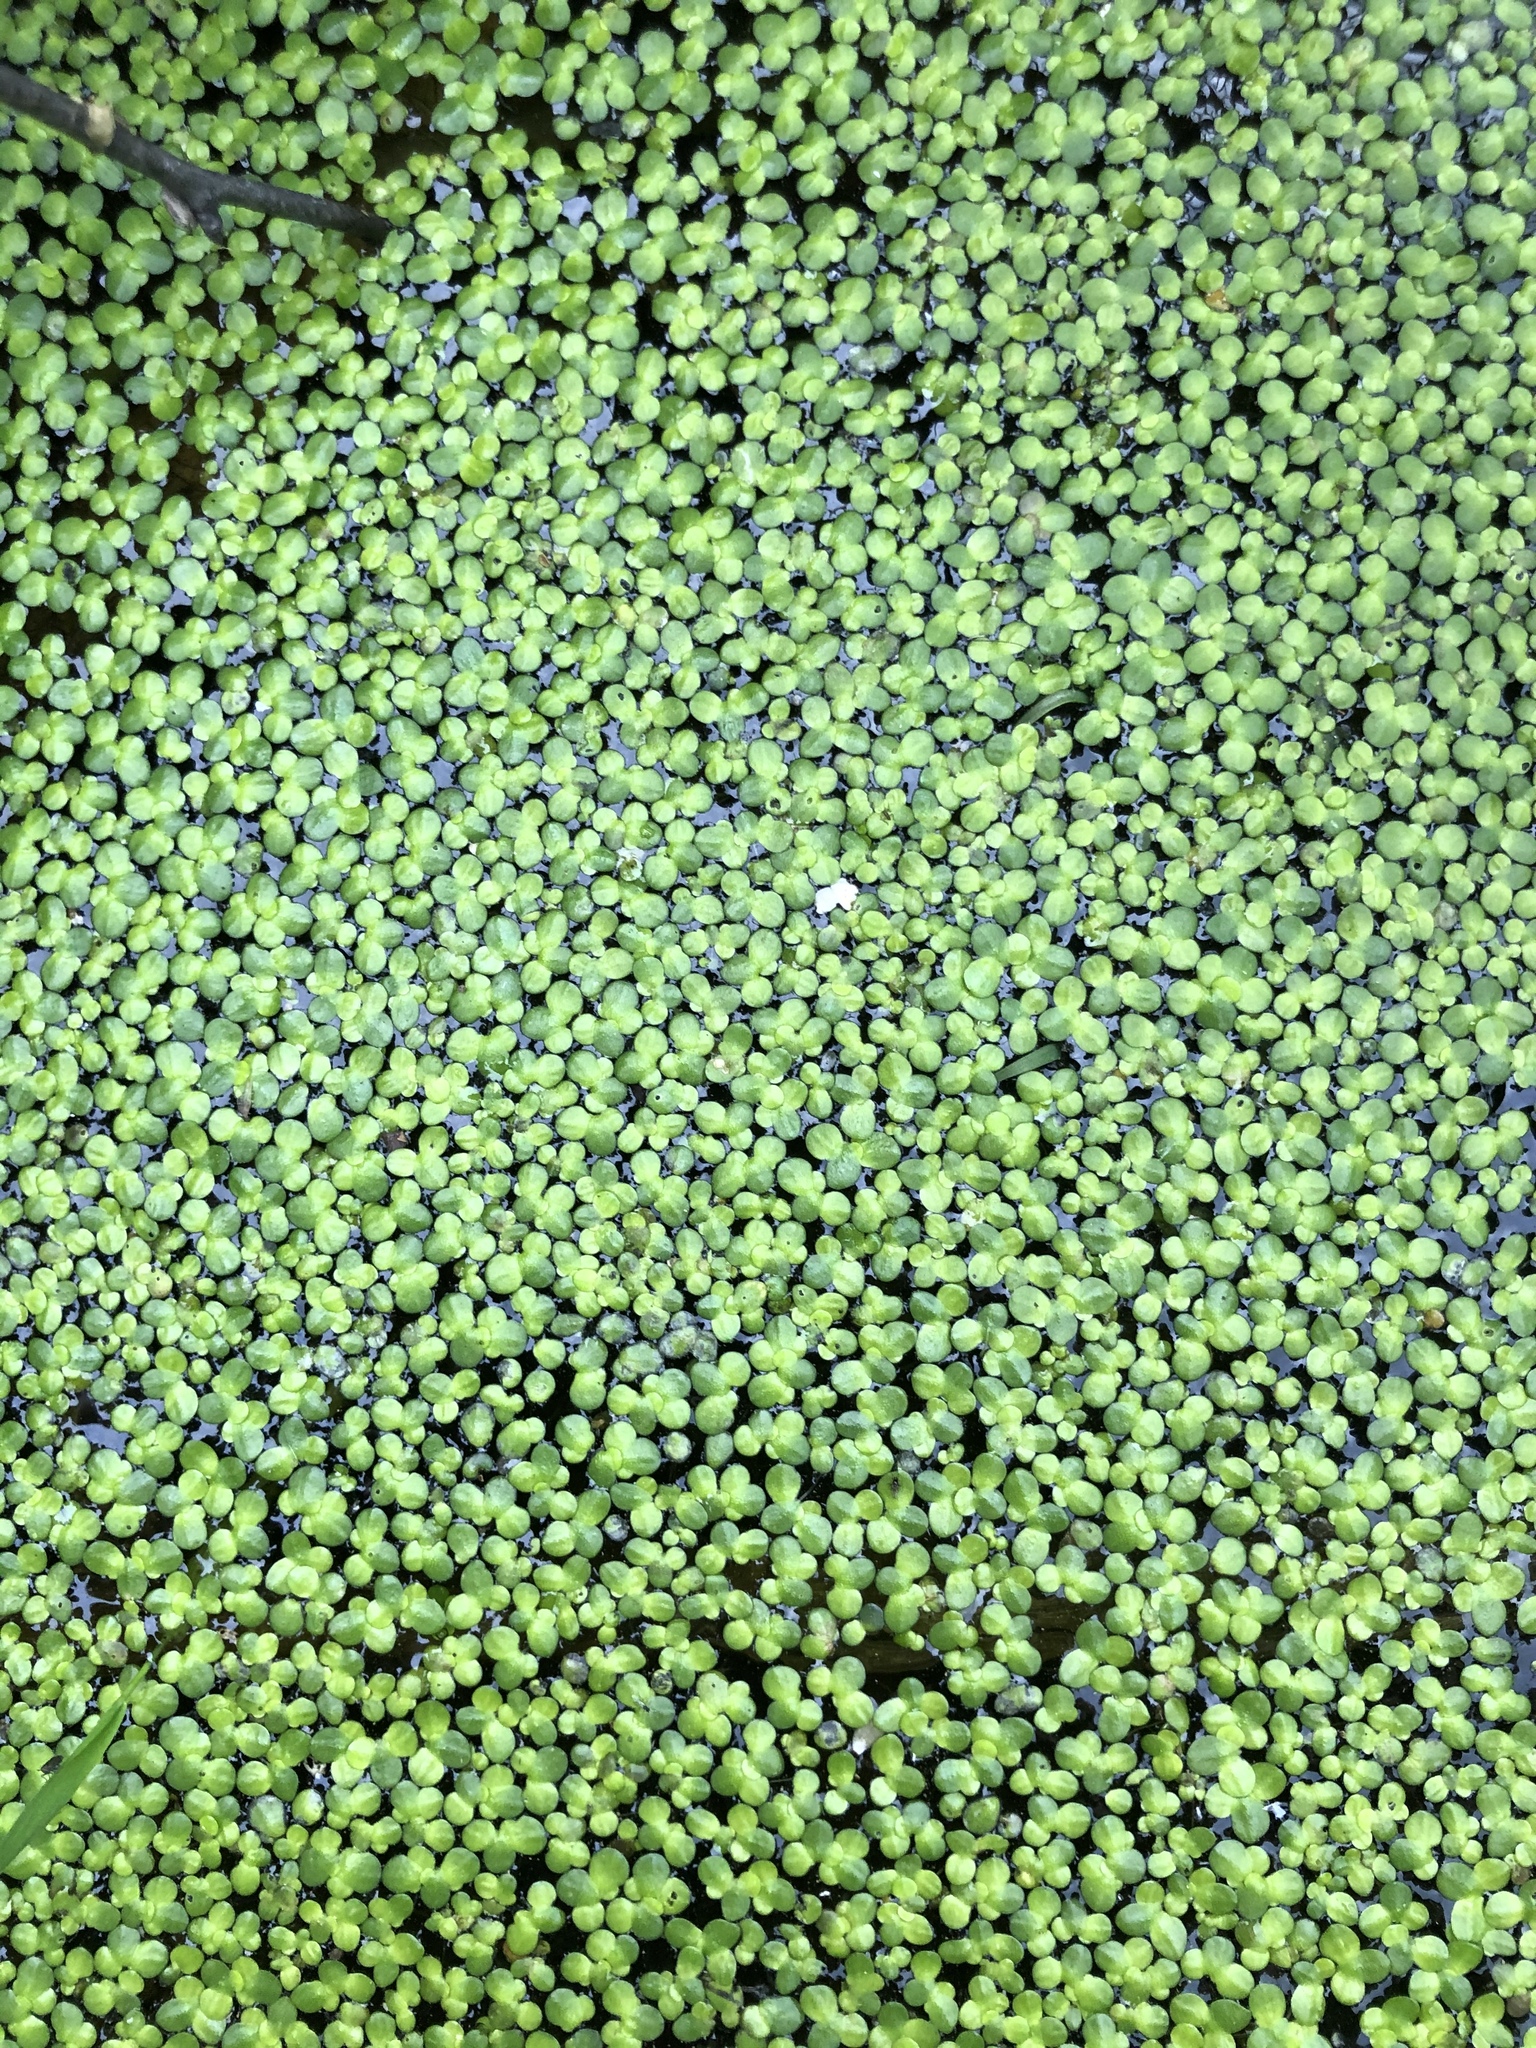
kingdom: Plantae
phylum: Tracheophyta
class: Liliopsida
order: Alismatales
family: Araceae
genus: Lemna
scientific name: Lemna turionifera
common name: Perennial duckweed
